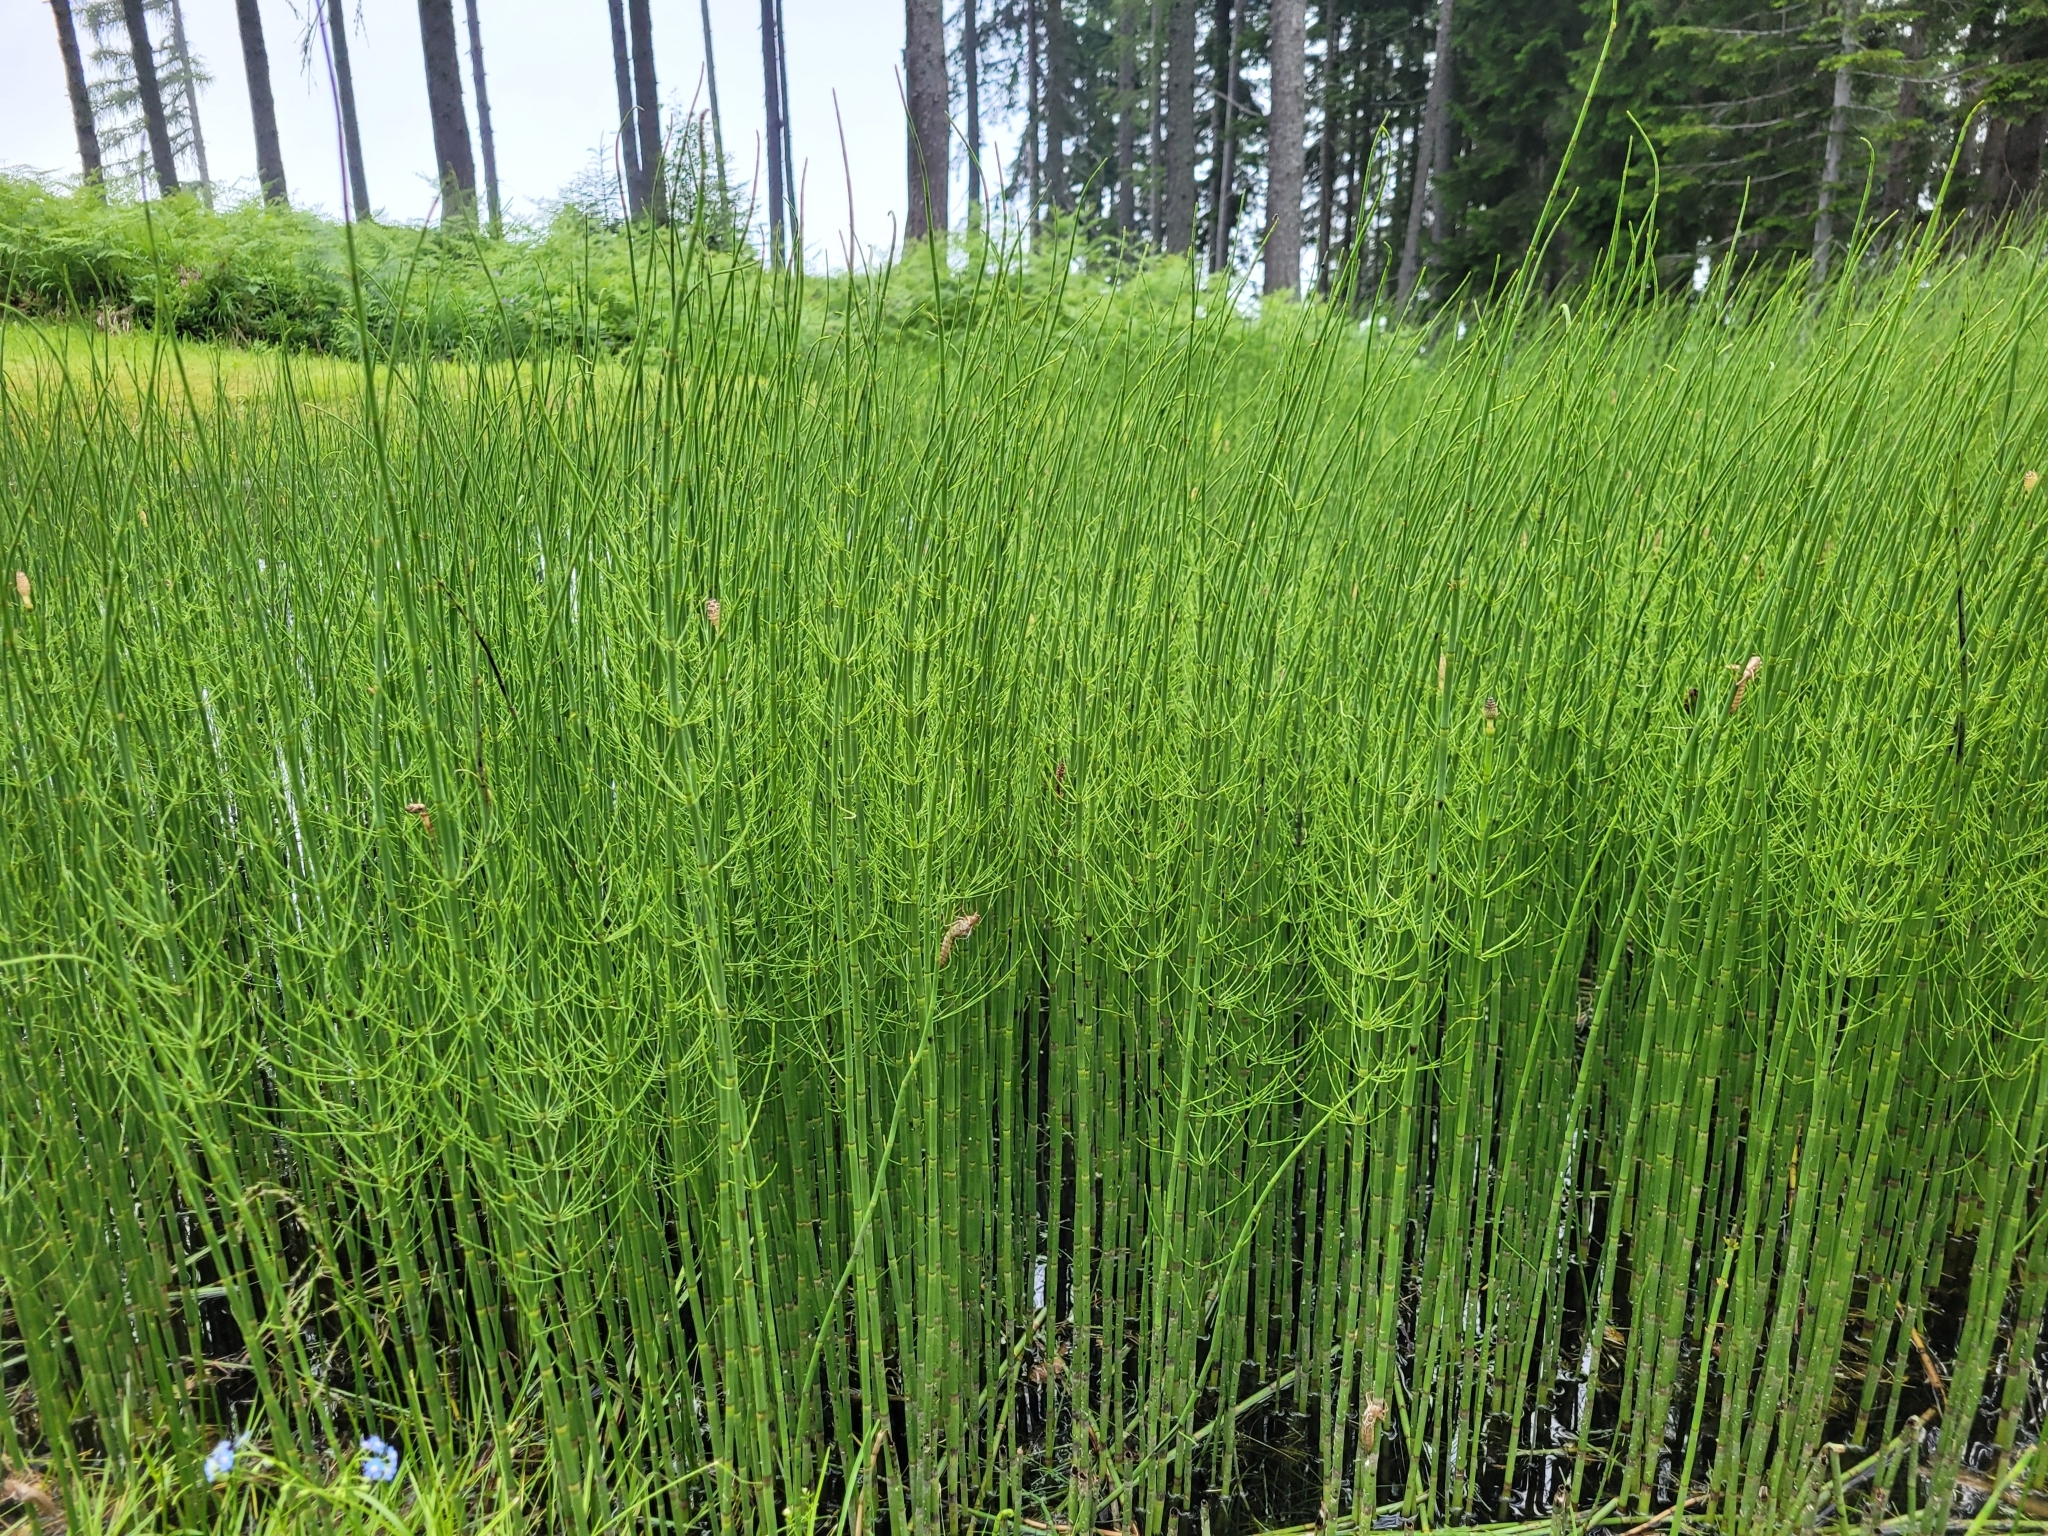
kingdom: Plantae
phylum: Tracheophyta
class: Polypodiopsida
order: Equisetales
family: Equisetaceae
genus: Equisetum
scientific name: Equisetum fluviatile
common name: Water horsetail
